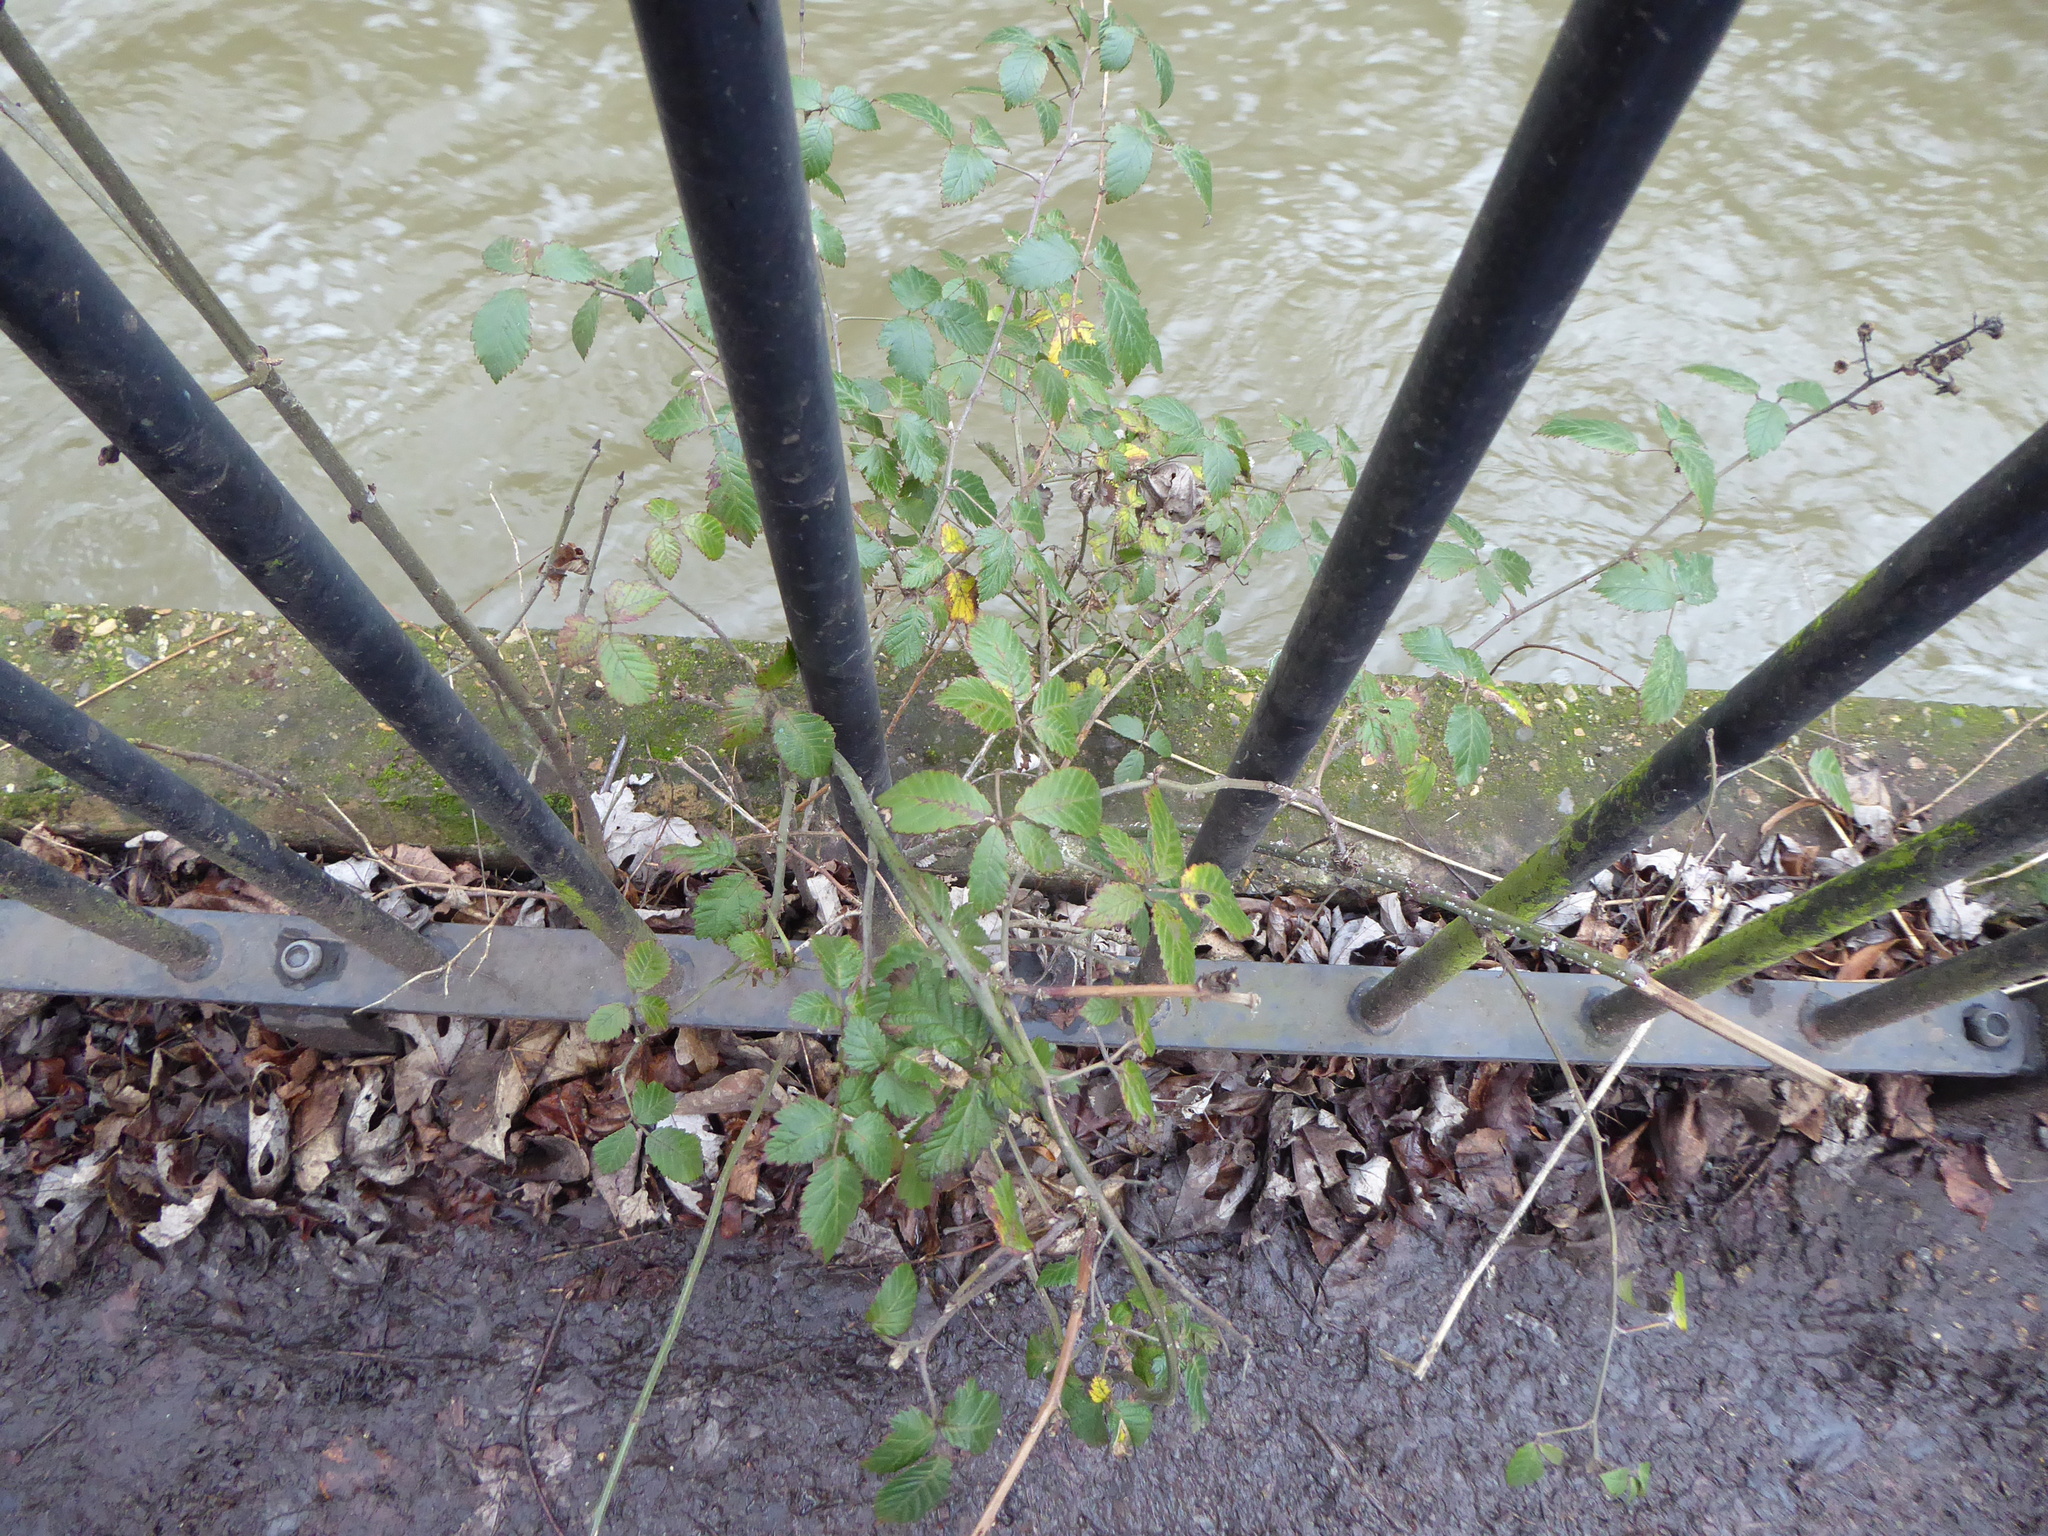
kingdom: Plantae
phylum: Tracheophyta
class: Magnoliopsida
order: Rosales
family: Rosaceae
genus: Rubus
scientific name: Rubus
